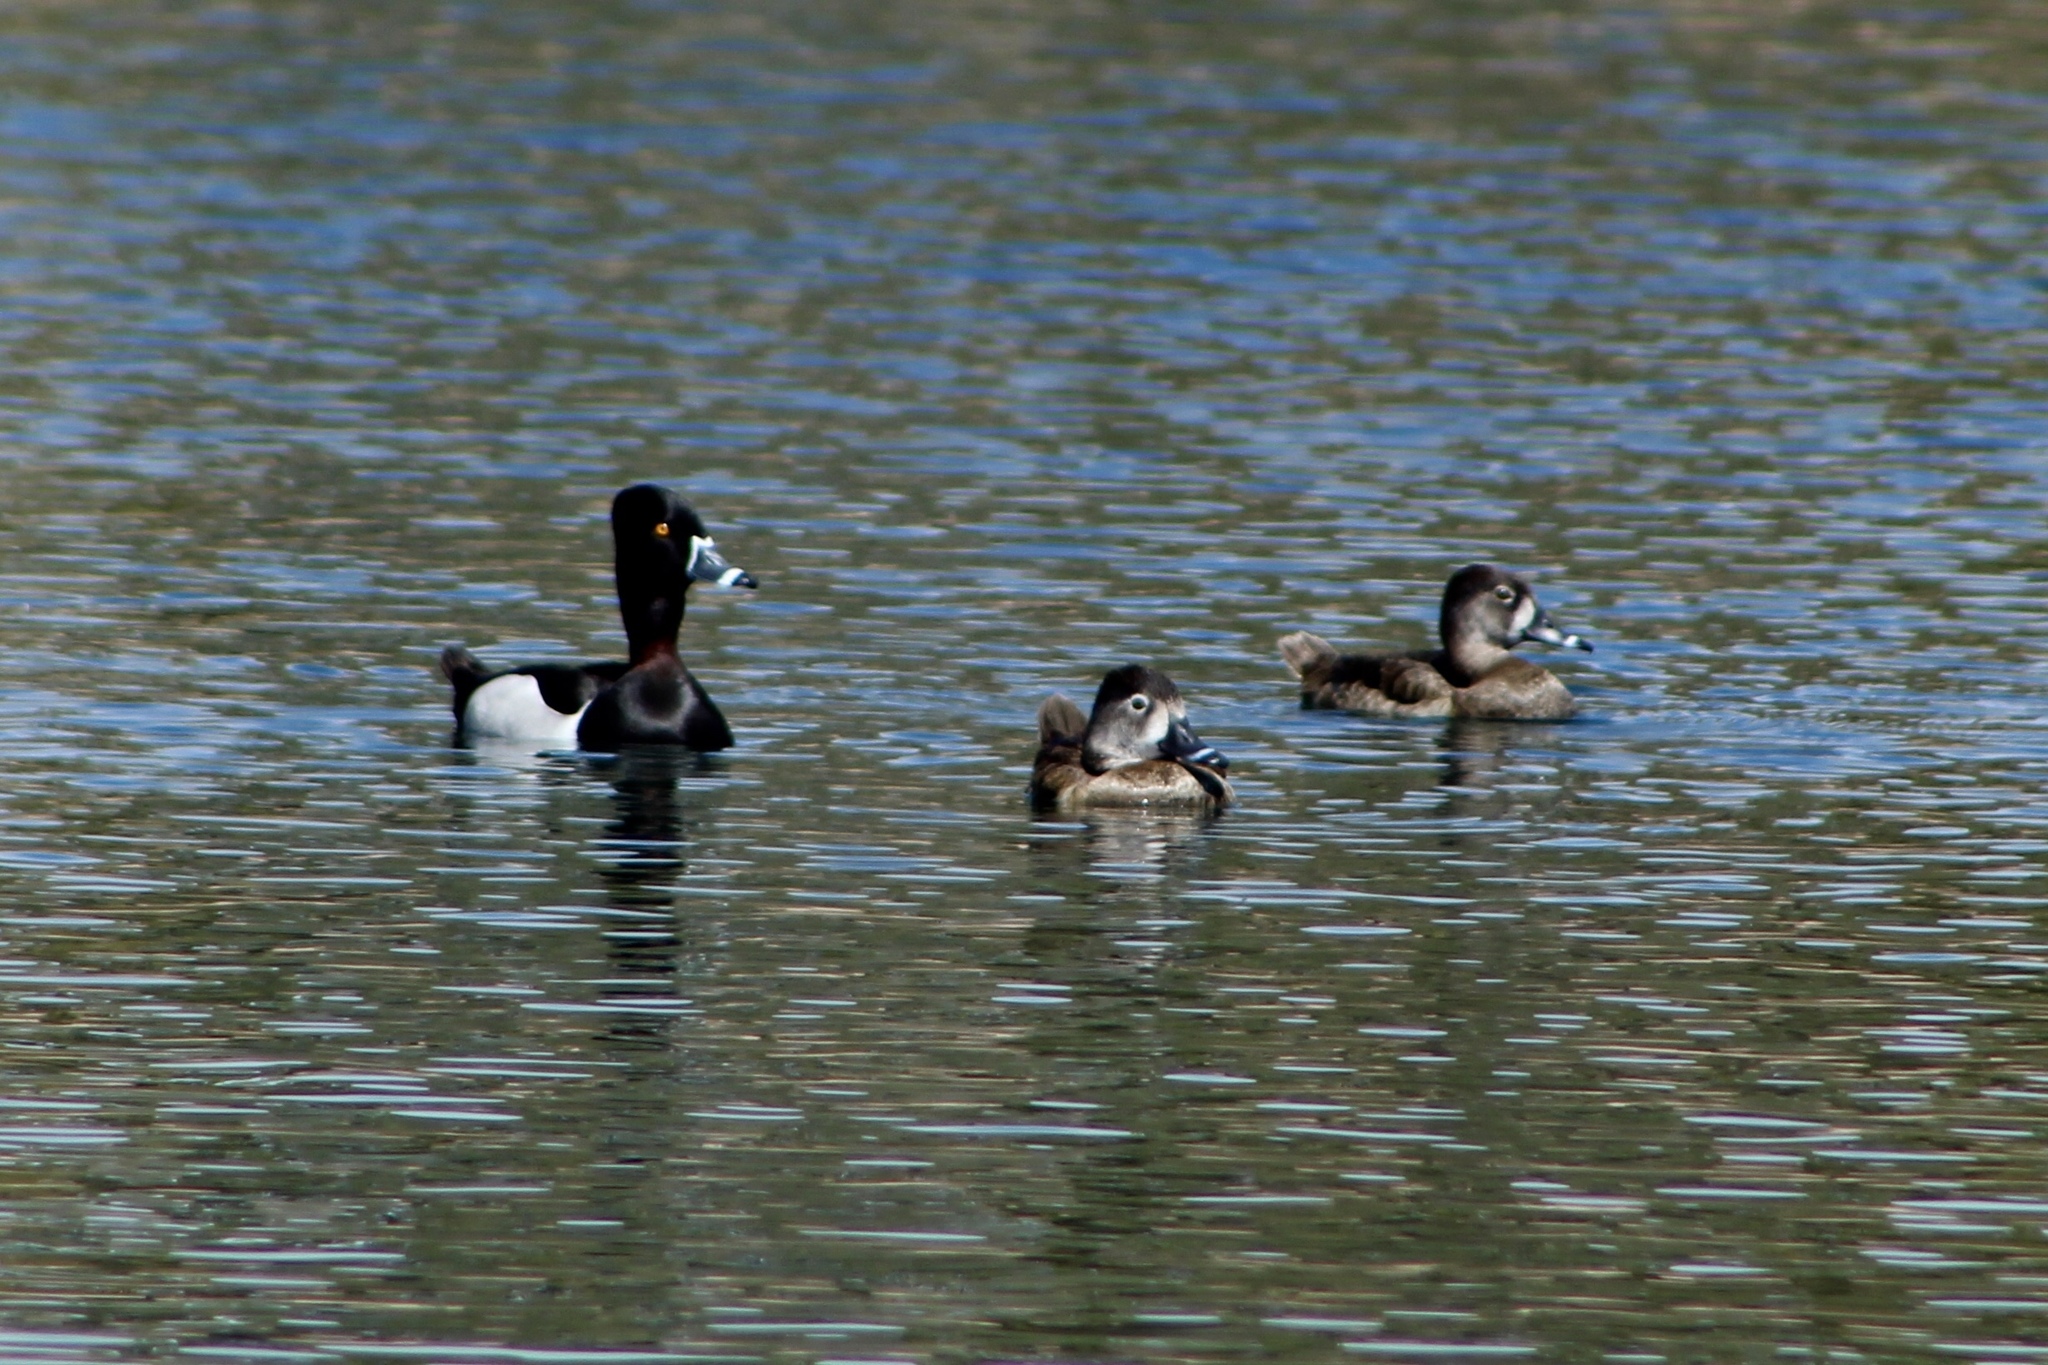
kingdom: Animalia
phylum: Chordata
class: Aves
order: Anseriformes
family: Anatidae
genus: Aythya
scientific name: Aythya collaris
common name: Ring-necked duck
